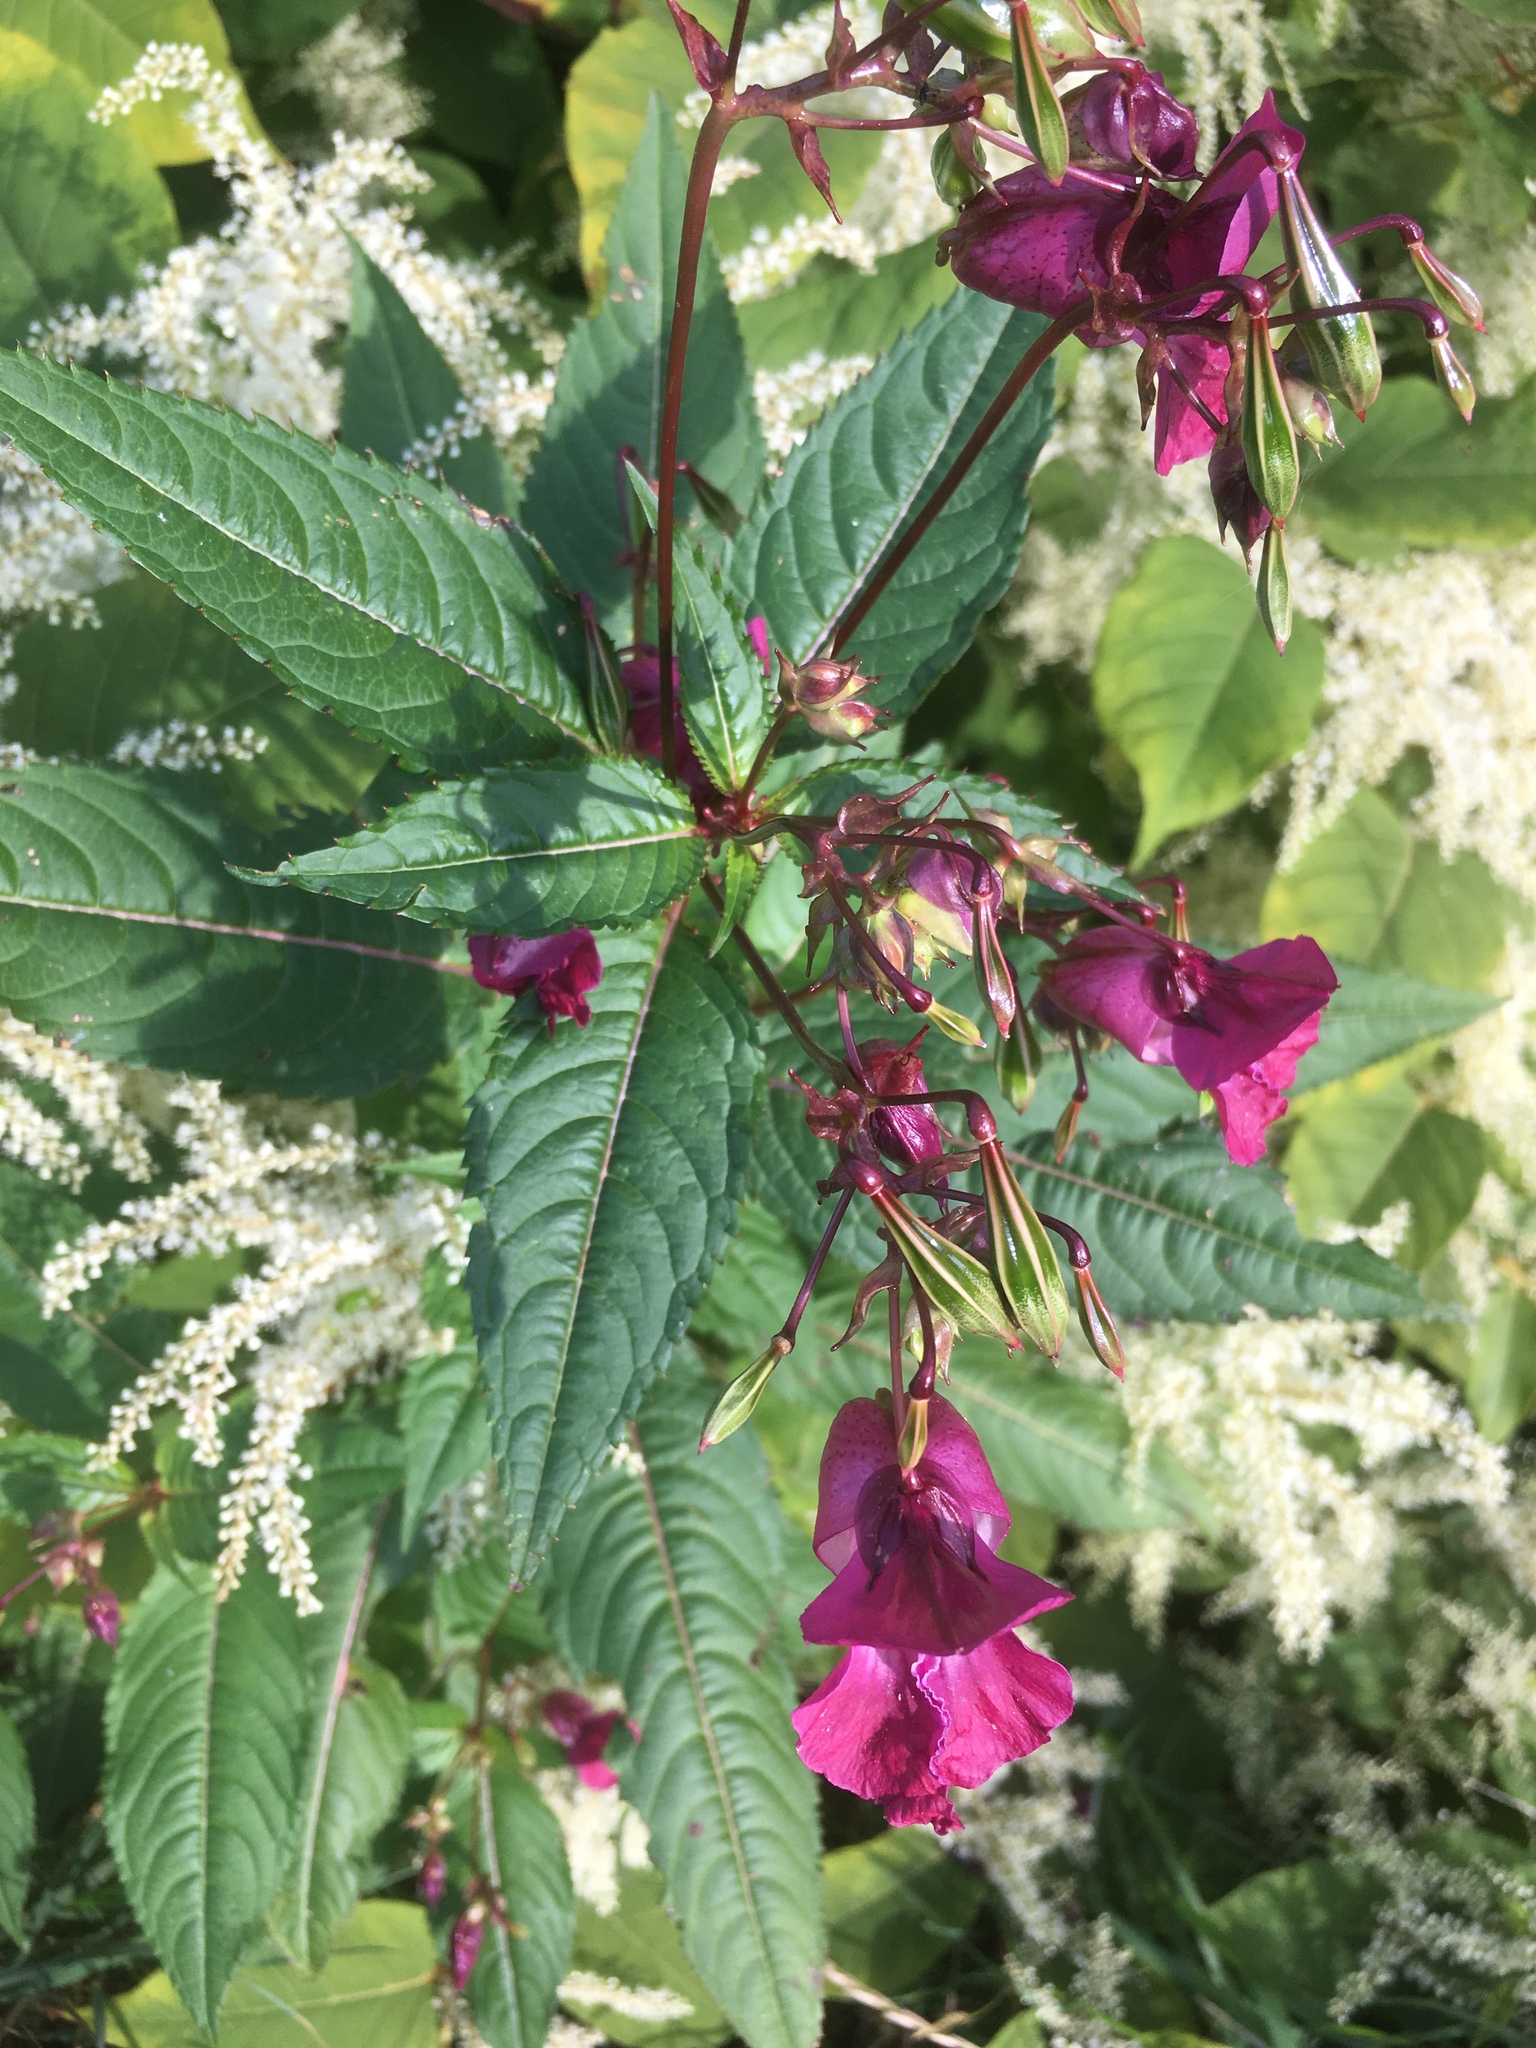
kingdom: Plantae
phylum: Tracheophyta
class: Magnoliopsida
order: Ericales
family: Balsaminaceae
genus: Impatiens
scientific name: Impatiens glandulifera
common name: Himalayan balsam
